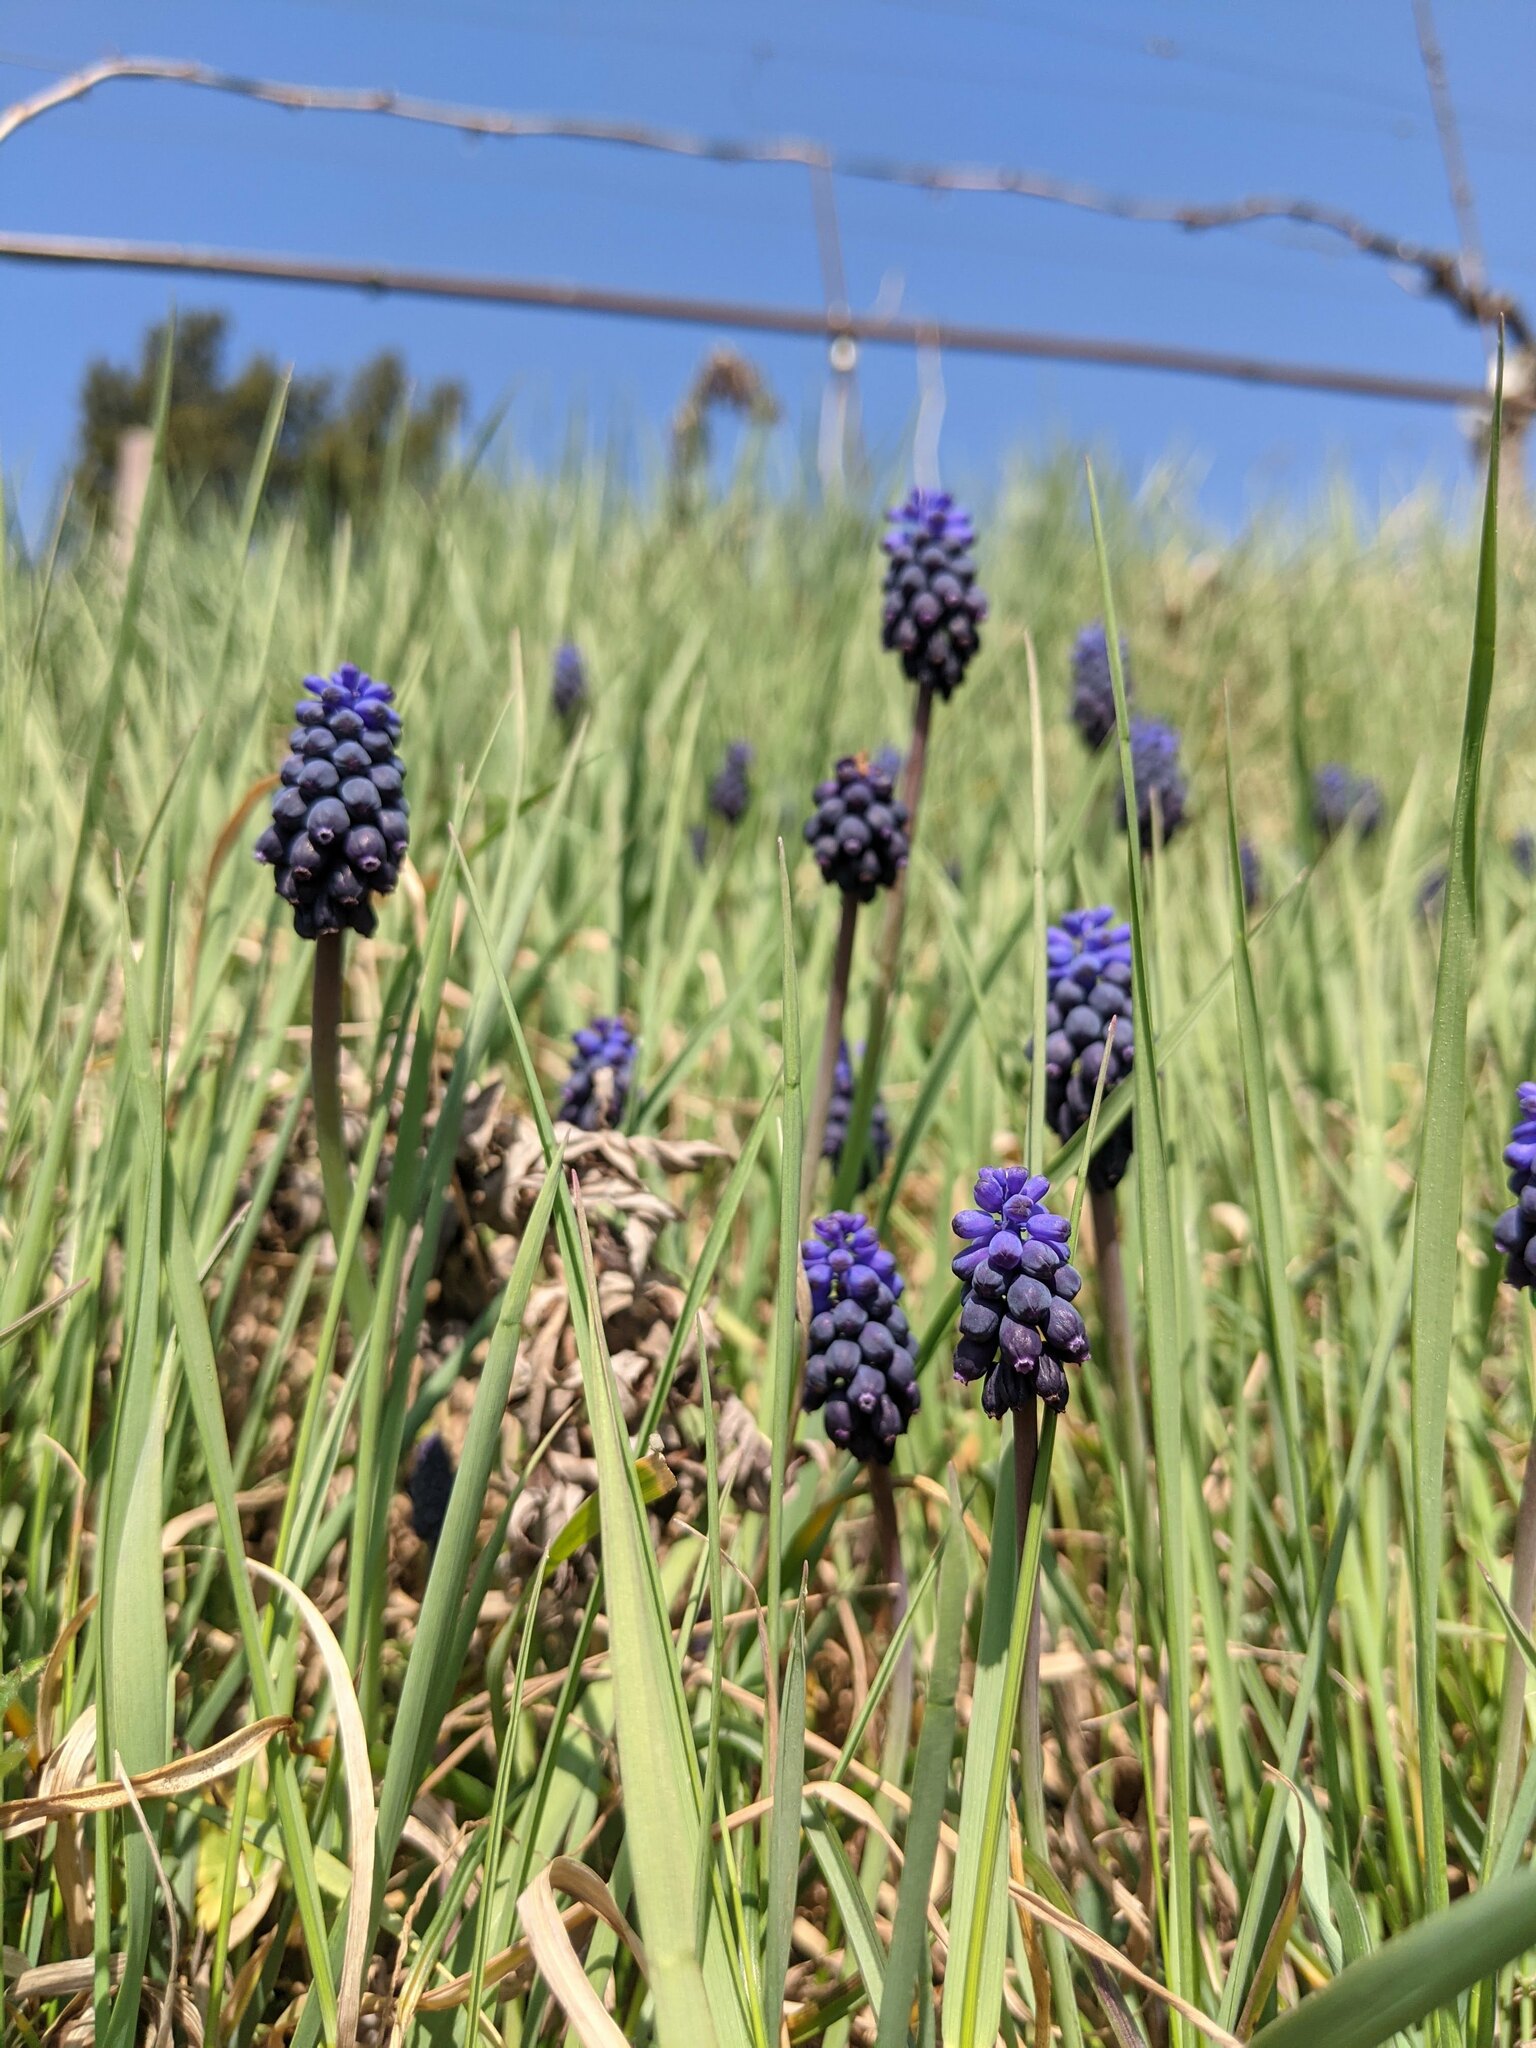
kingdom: Plantae
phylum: Tracheophyta
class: Liliopsida
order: Asparagales
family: Asparagaceae
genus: Muscari
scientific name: Muscari neglectum
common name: Grape-hyacinth
